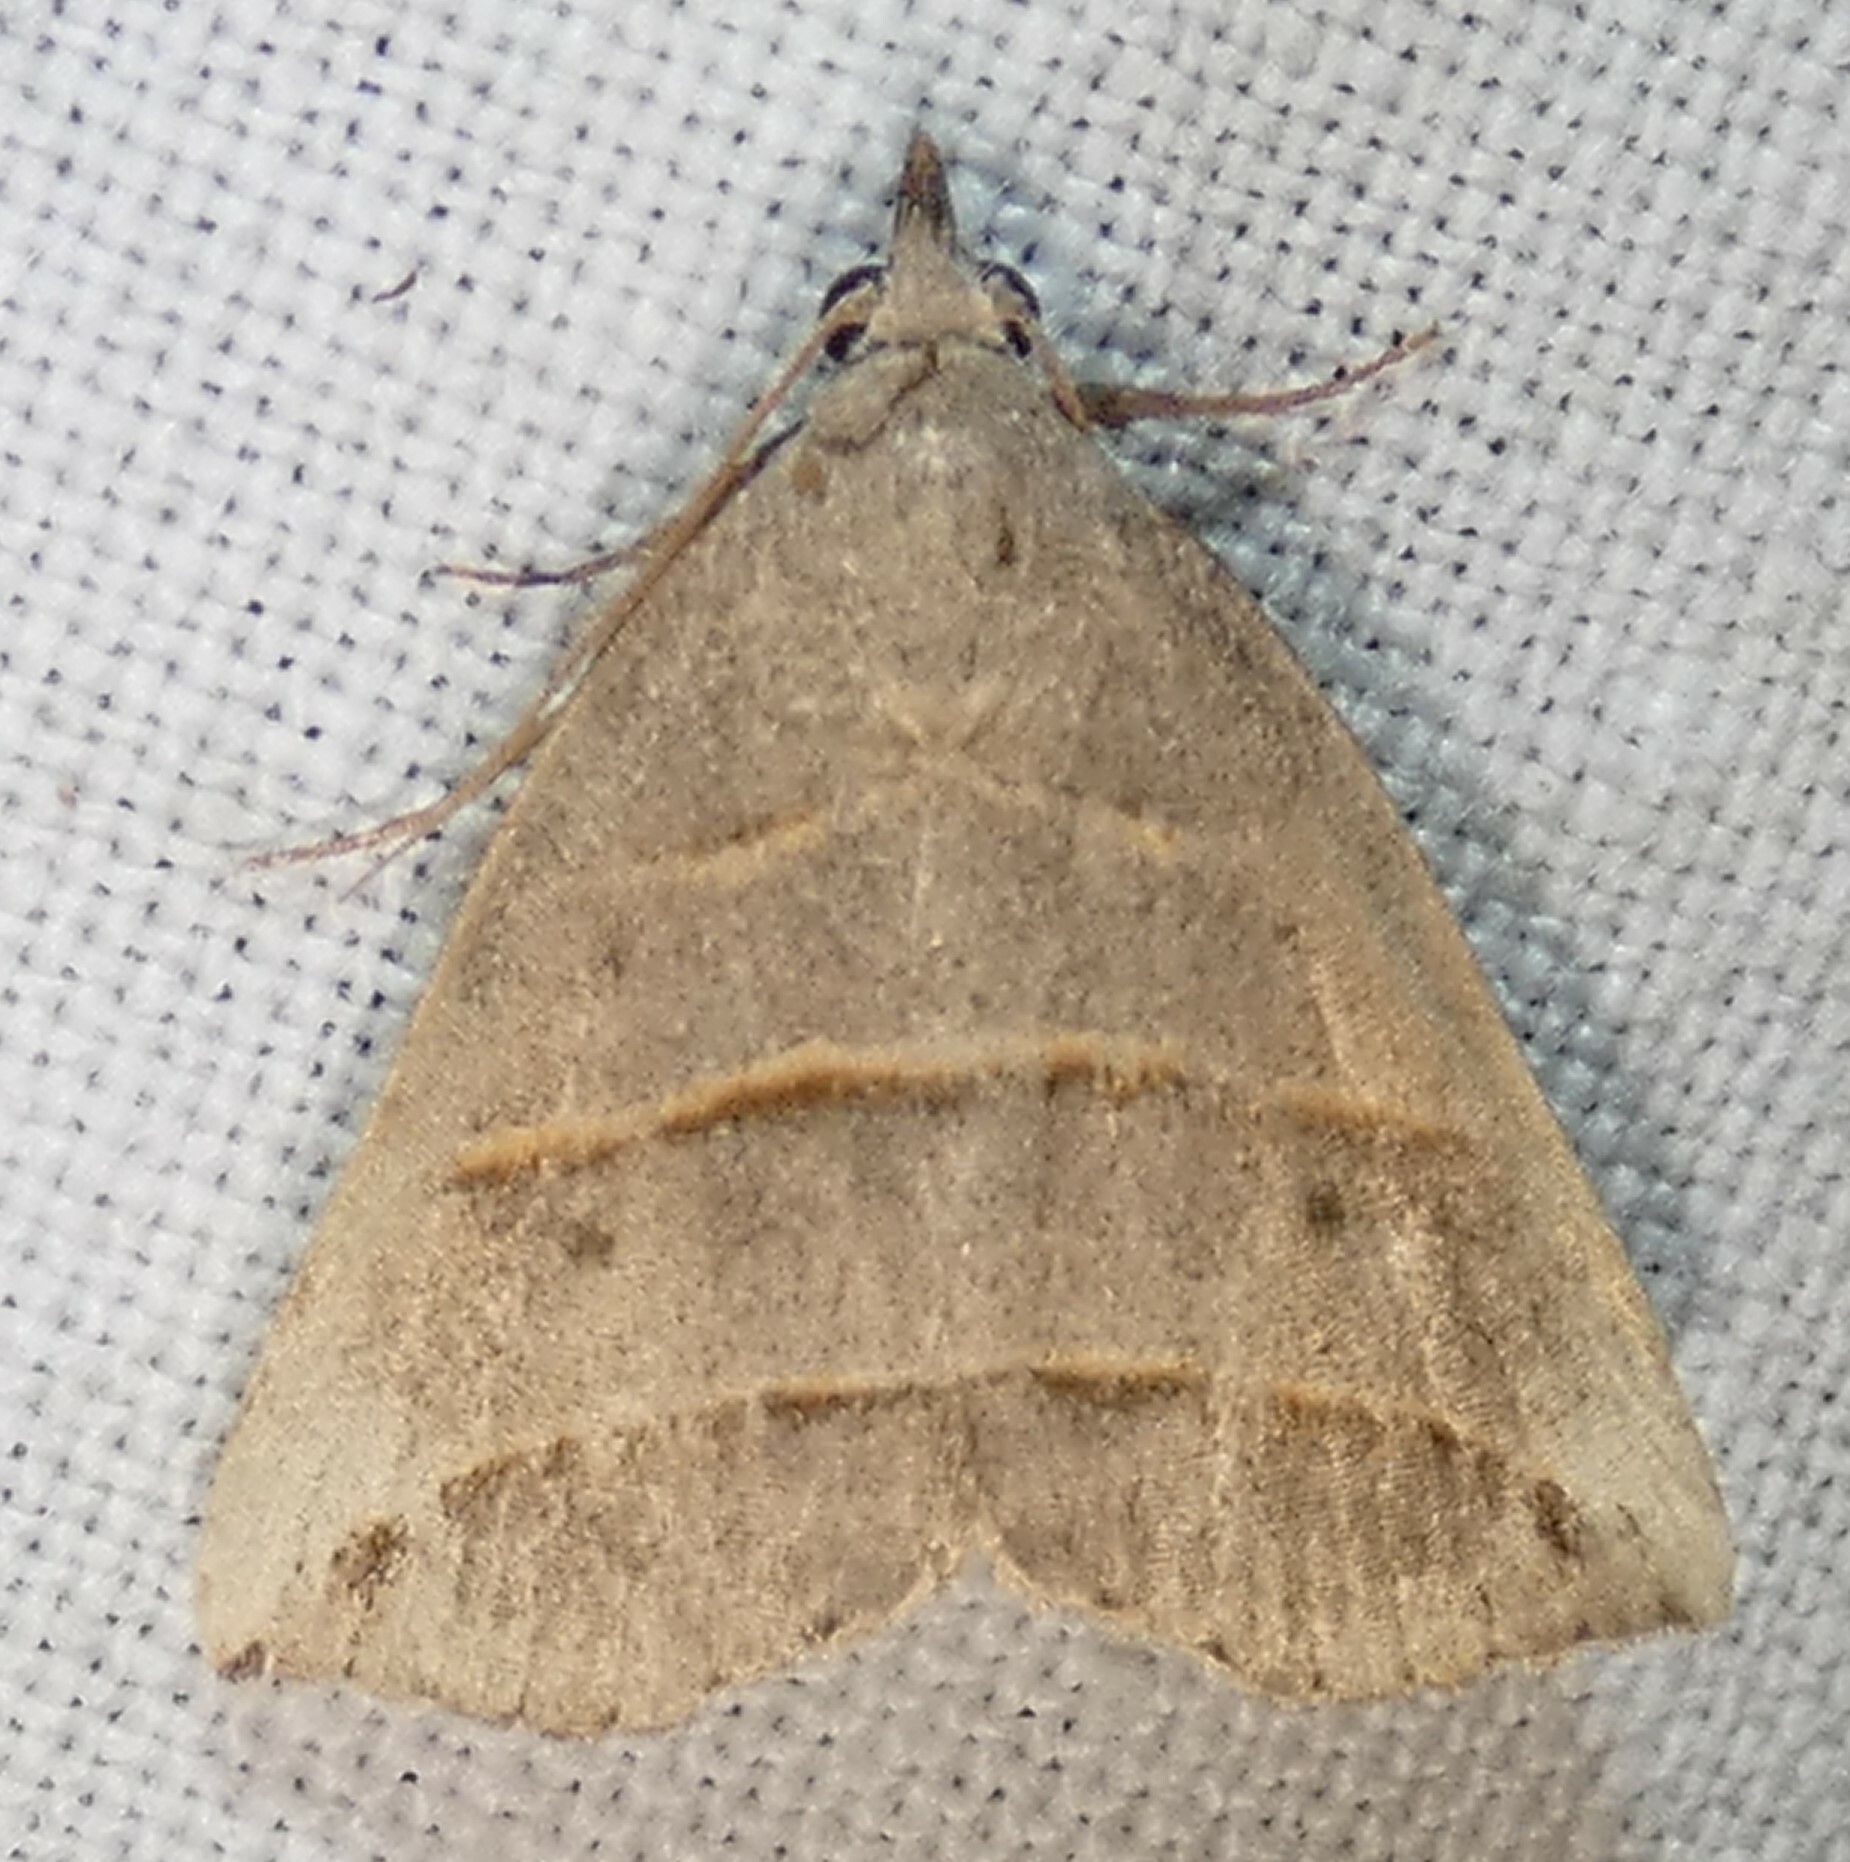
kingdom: Animalia
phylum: Arthropoda
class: Insecta
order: Lepidoptera
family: Erebidae
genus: Colobochyla
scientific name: Colobochyla interpuncta
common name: Yellow-lined owlet
